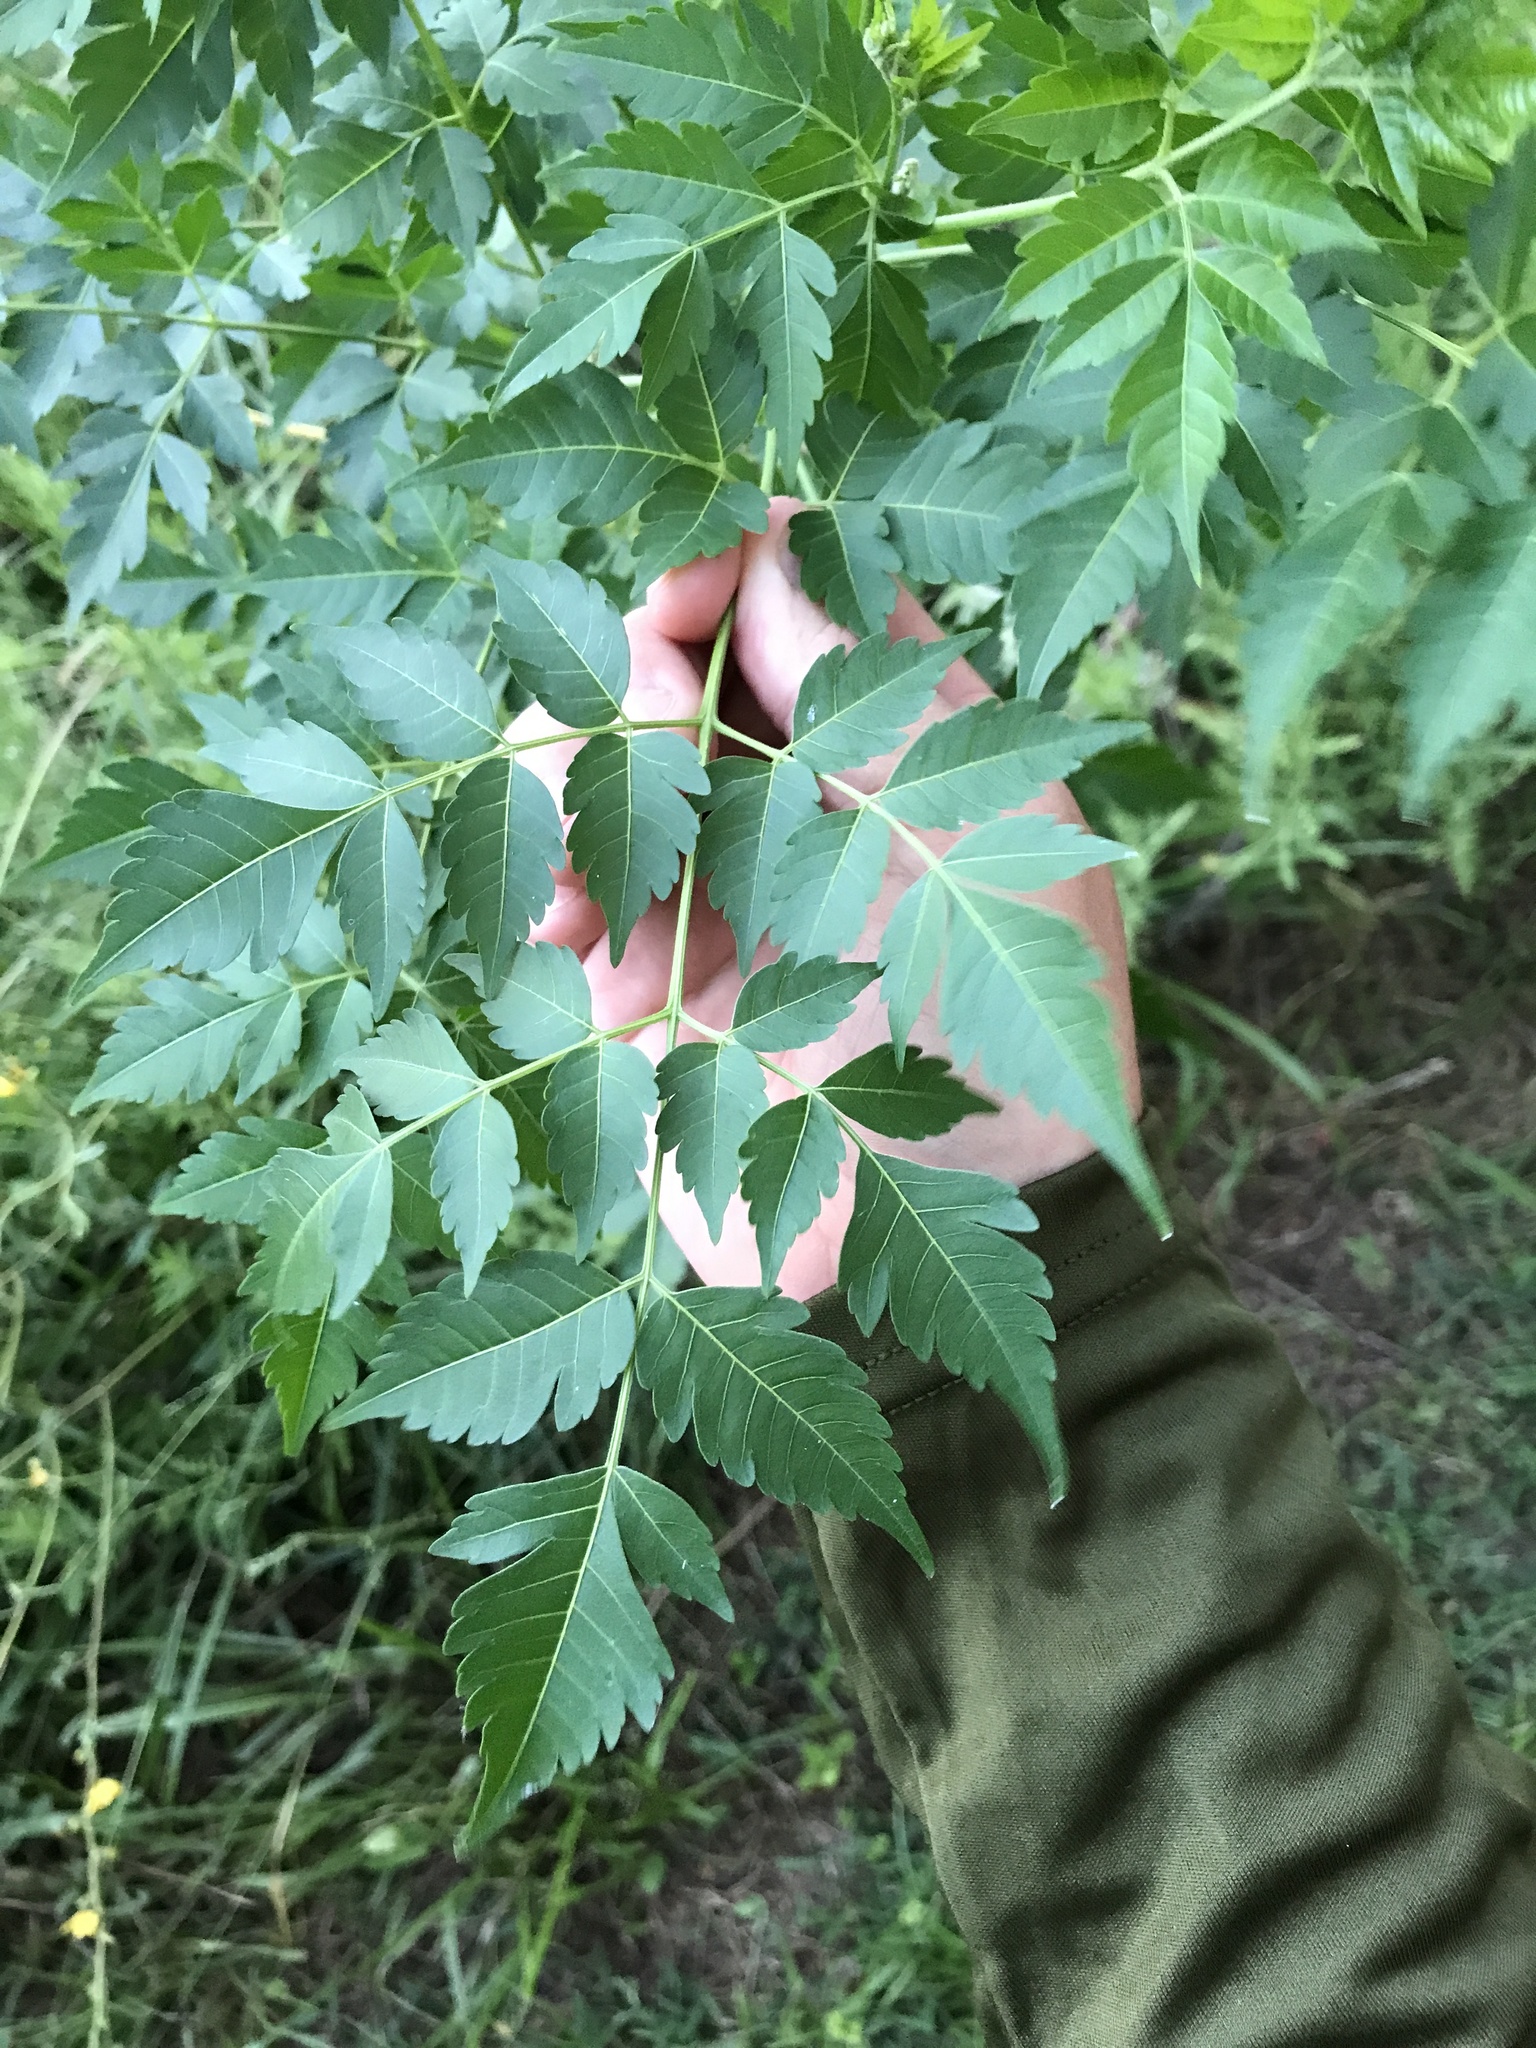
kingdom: Plantae
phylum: Tracheophyta
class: Magnoliopsida
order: Sapindales
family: Meliaceae
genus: Melia
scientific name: Melia azedarach
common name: Chinaberrytree
